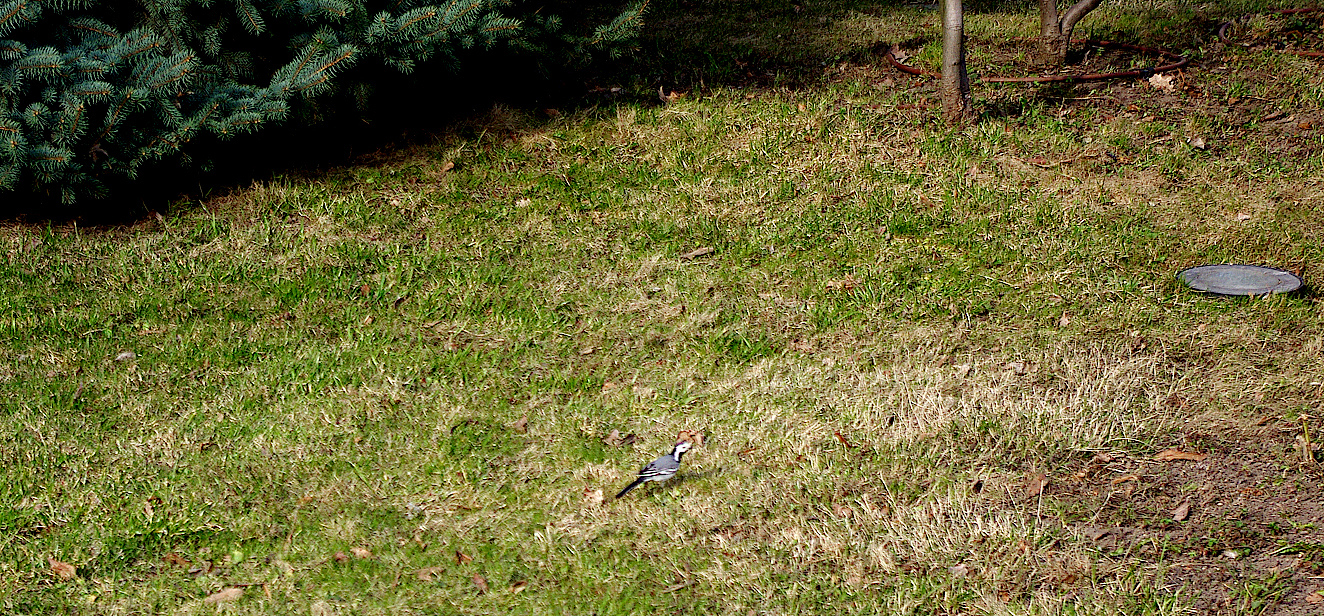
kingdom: Animalia
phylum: Chordata
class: Aves
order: Passeriformes
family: Motacillidae
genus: Motacilla
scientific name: Motacilla alba
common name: White wagtail
